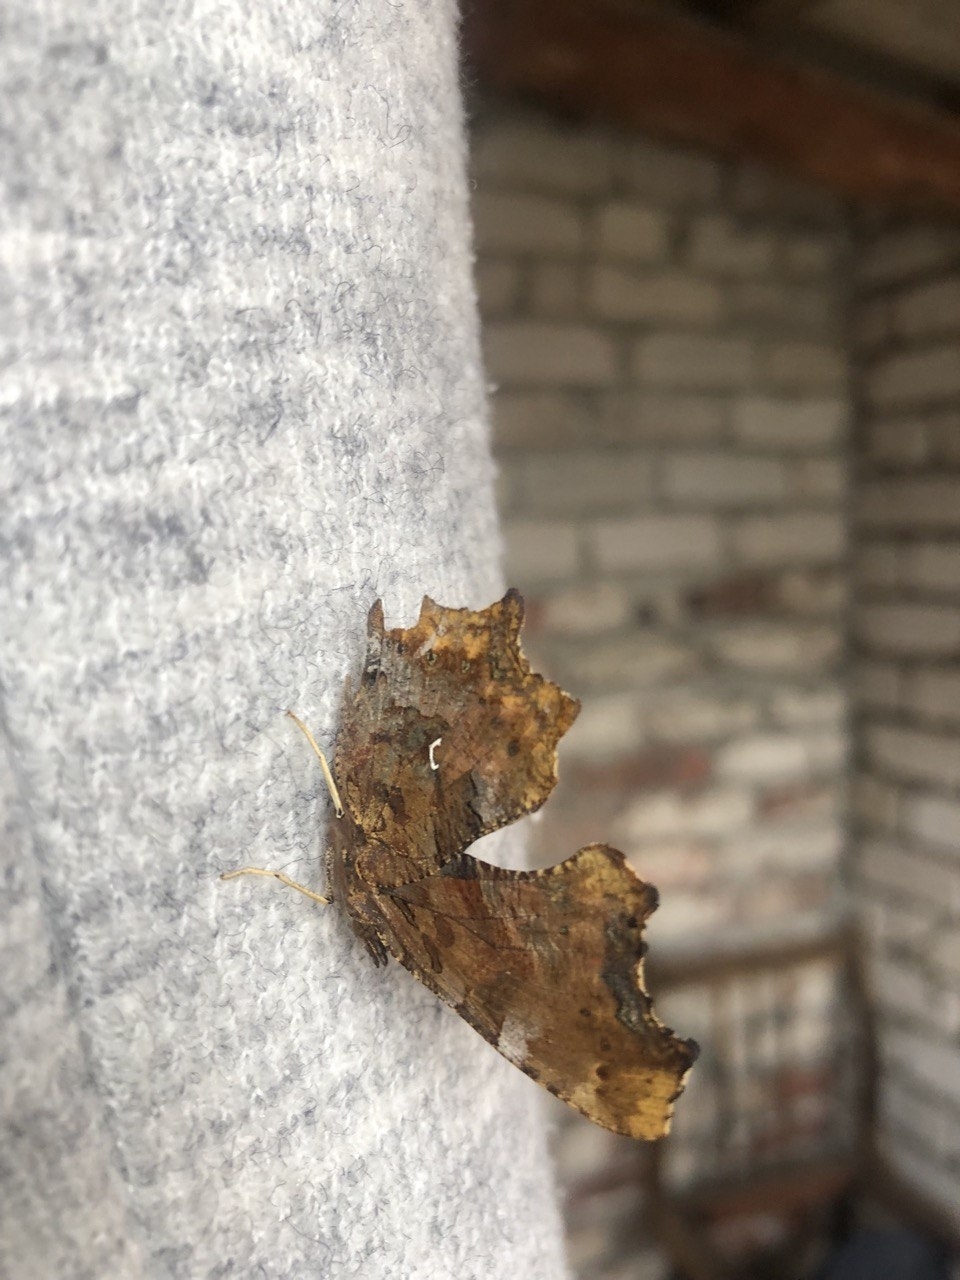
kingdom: Animalia
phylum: Arthropoda
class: Insecta
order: Lepidoptera
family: Nymphalidae
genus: Polygonia
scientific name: Polygonia c-album
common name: Comma
